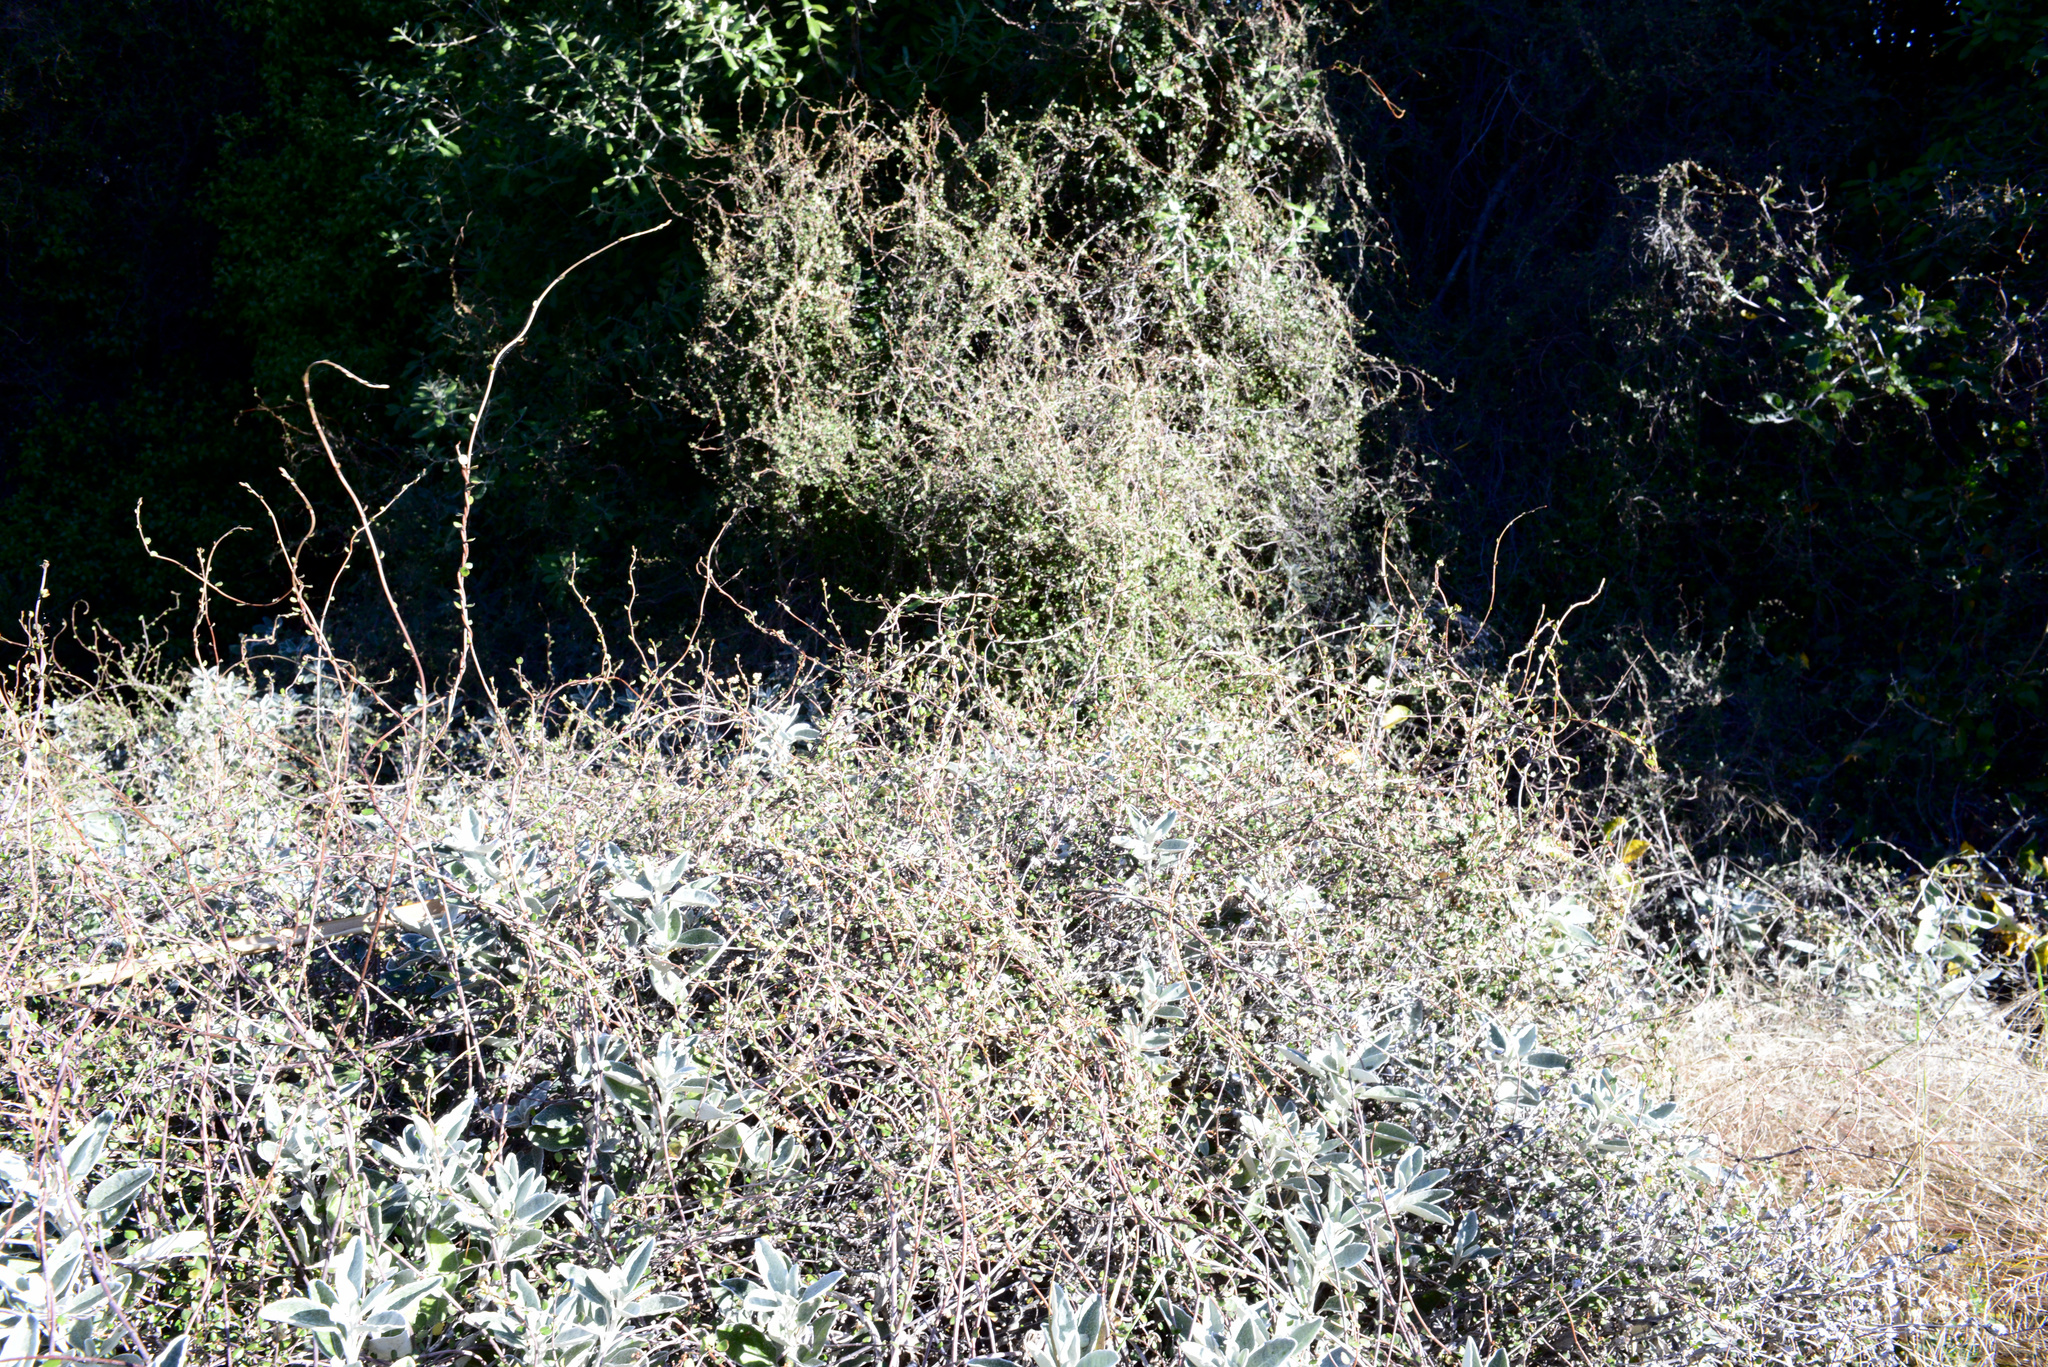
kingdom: Plantae
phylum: Tracheophyta
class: Magnoliopsida
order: Caryophyllales
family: Polygonaceae
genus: Muehlenbeckia
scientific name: Muehlenbeckia complexa
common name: Wireplant
